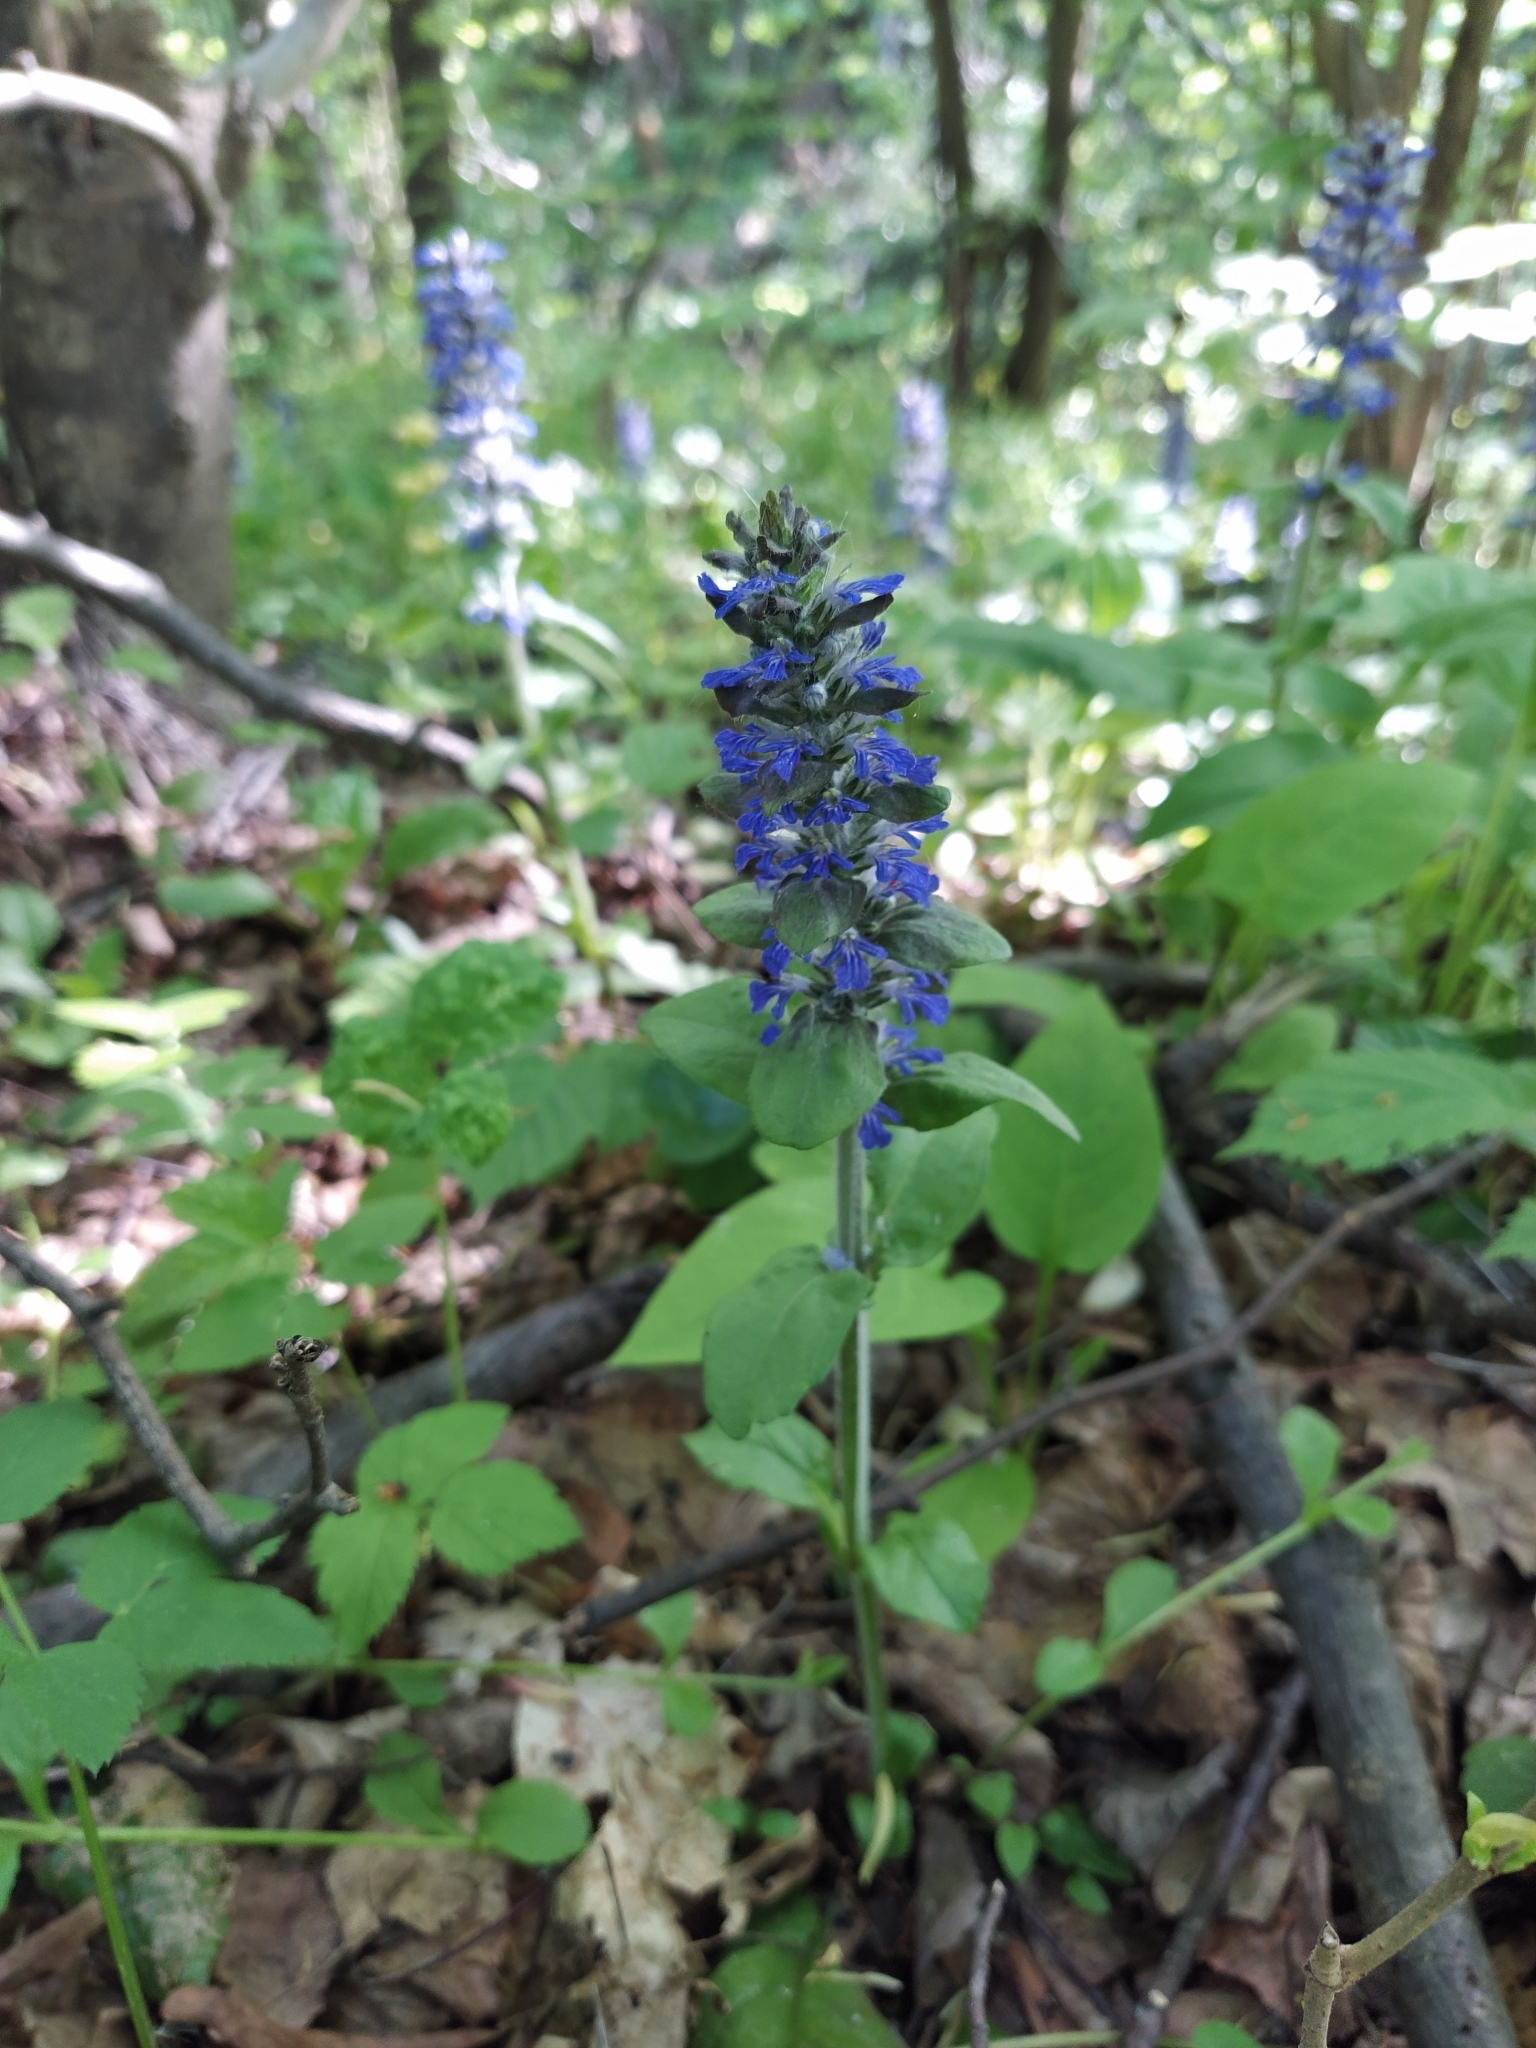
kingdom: Plantae
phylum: Tracheophyta
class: Magnoliopsida
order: Lamiales
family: Lamiaceae
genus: Ajuga
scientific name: Ajuga reptans
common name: Bugle
